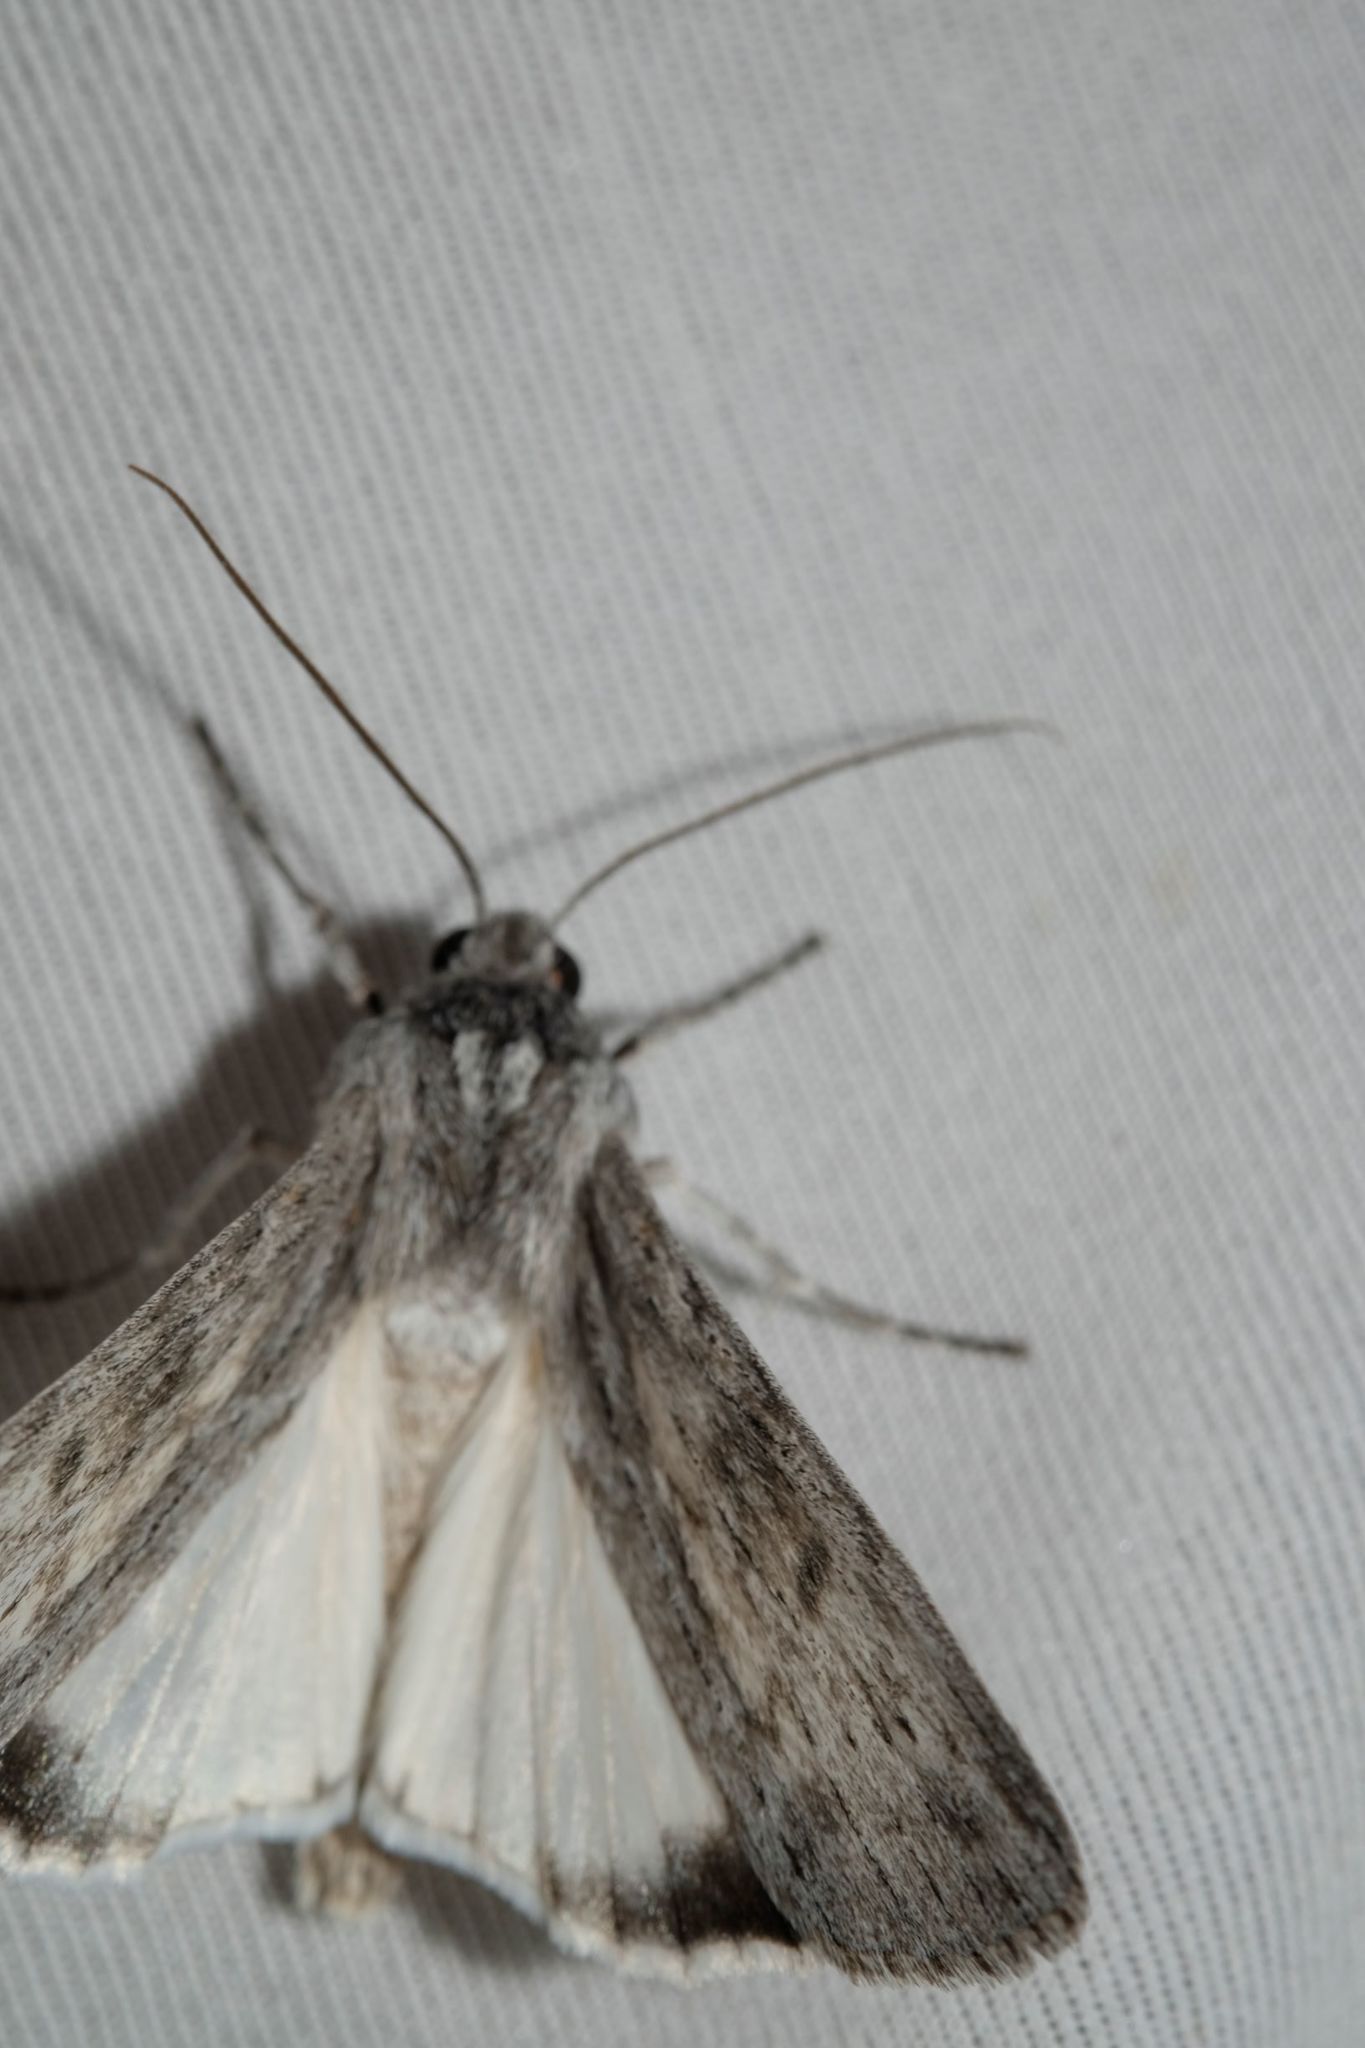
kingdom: Animalia
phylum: Arthropoda
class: Insecta
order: Lepidoptera
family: Geometridae
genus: Capusa
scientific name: Capusa cuculloides
